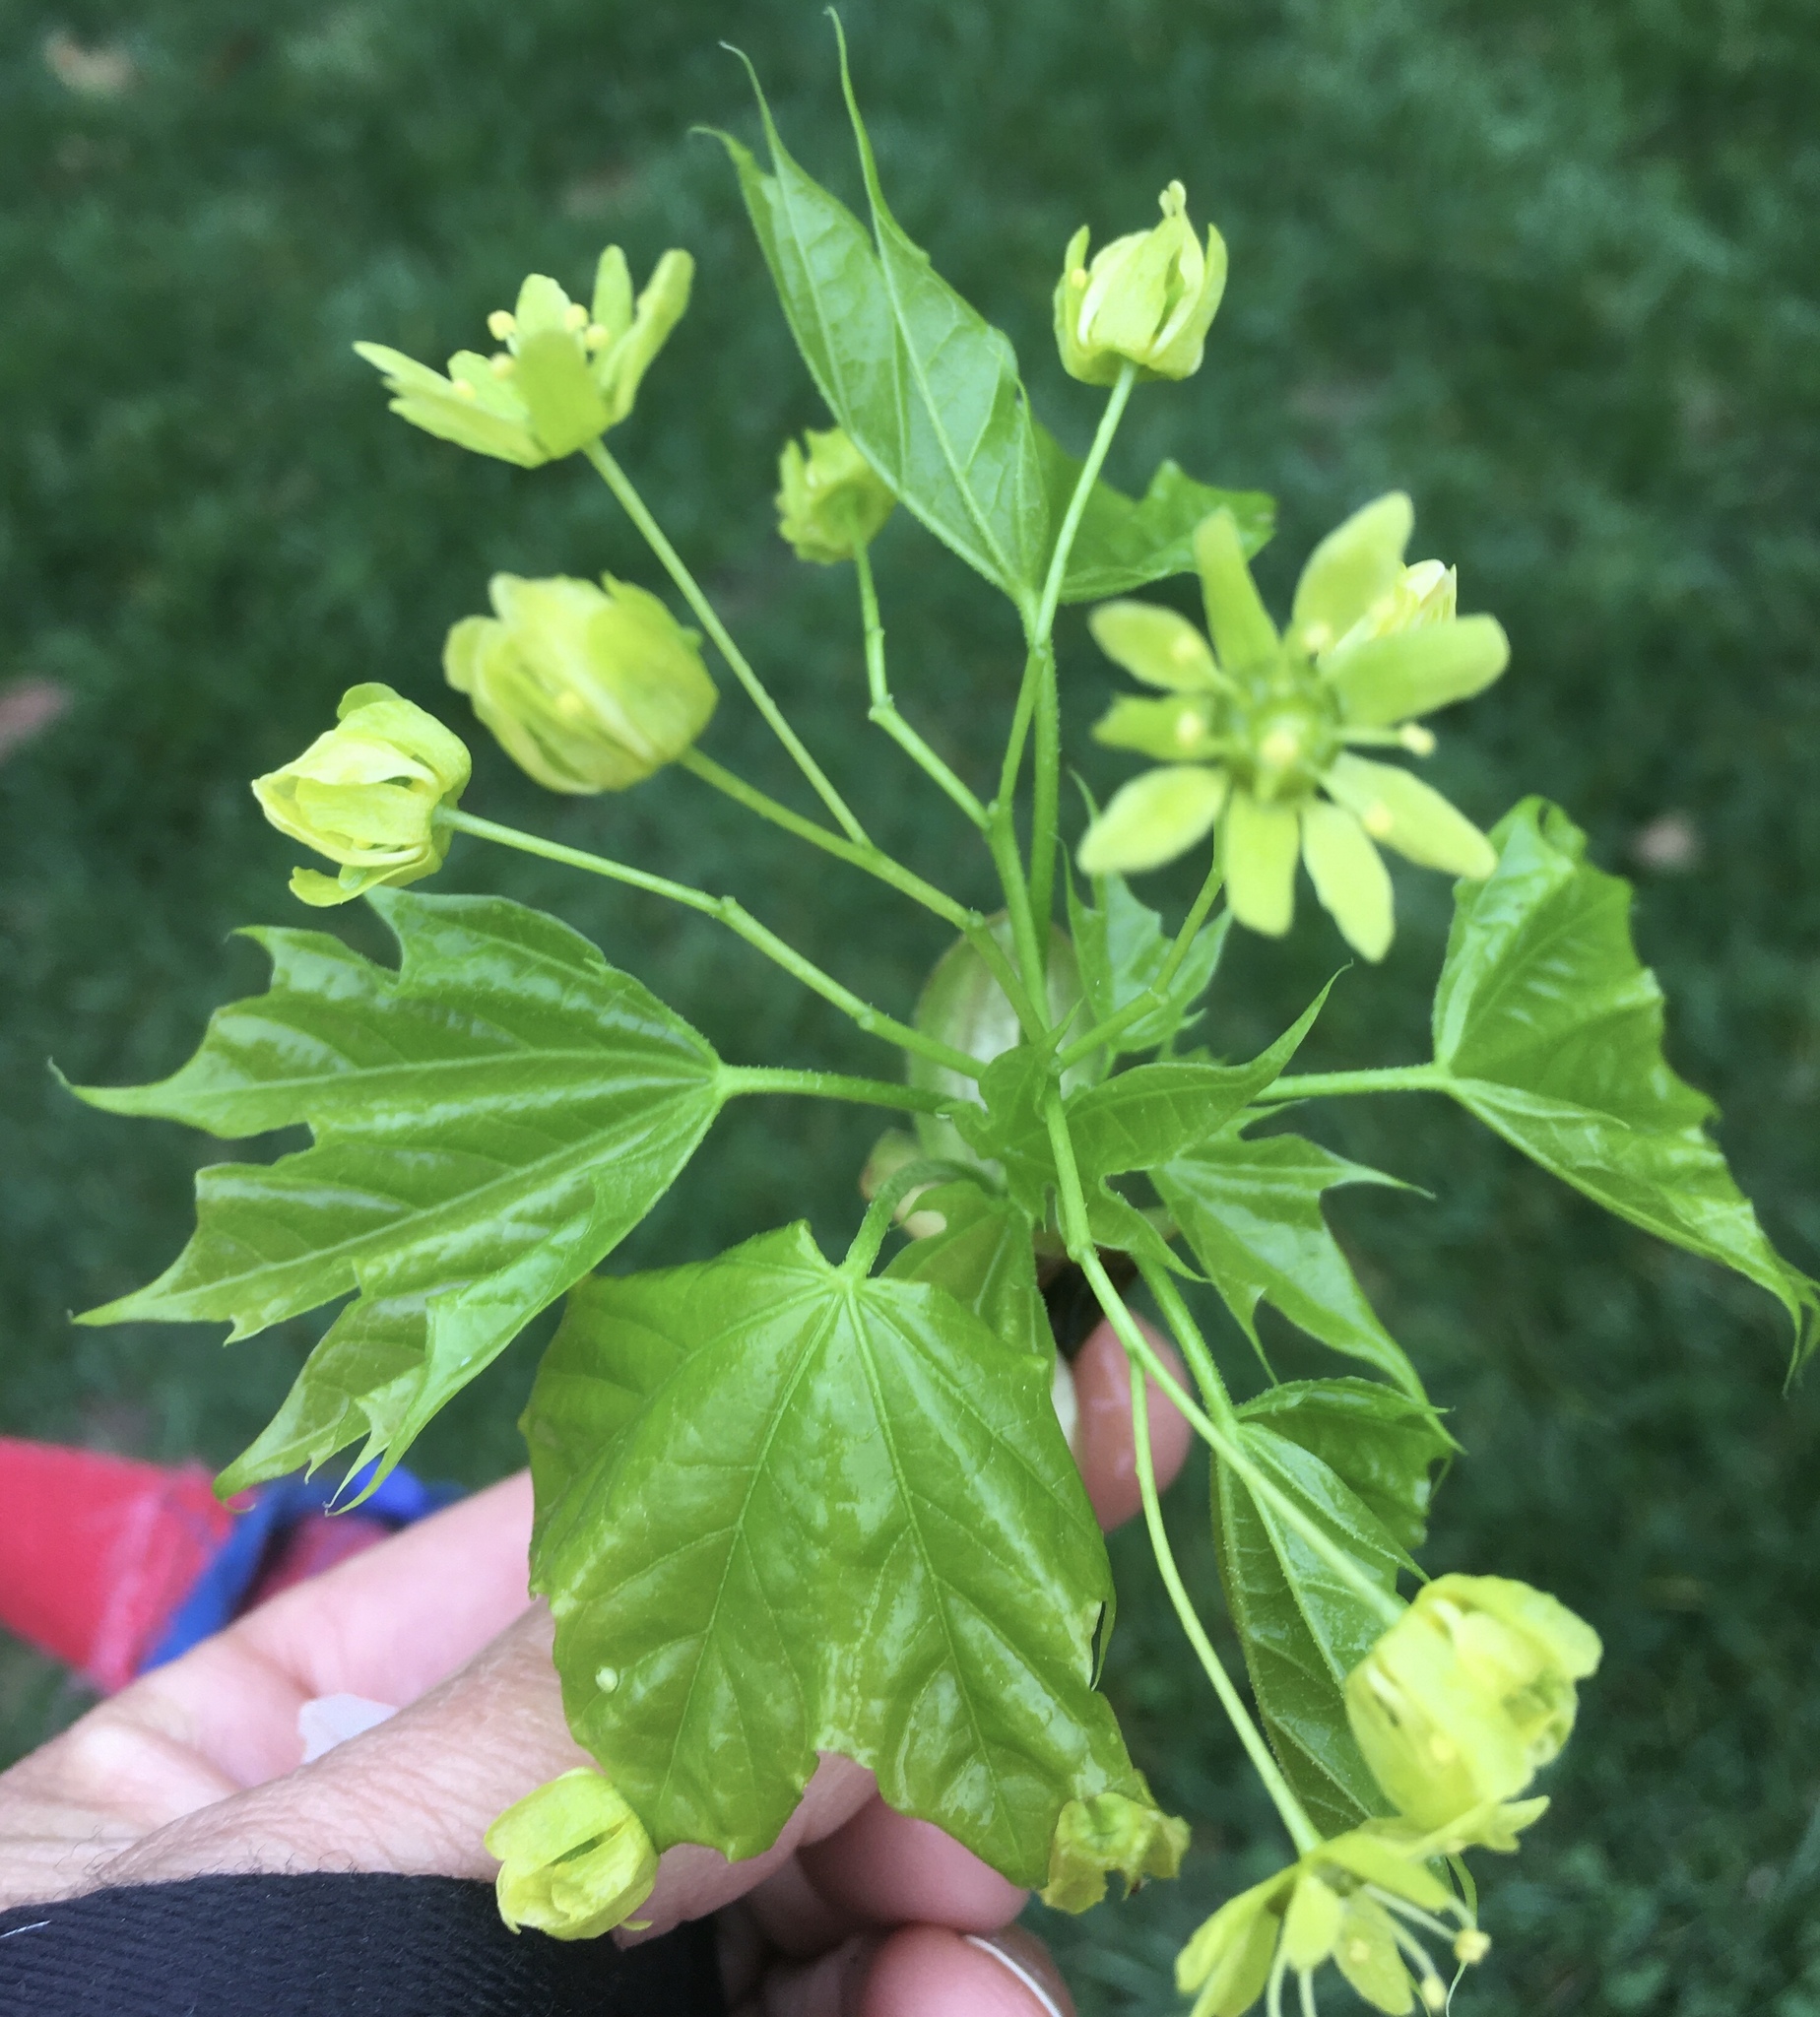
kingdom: Plantae
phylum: Tracheophyta
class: Magnoliopsida
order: Sapindales
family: Sapindaceae
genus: Acer
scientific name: Acer platanoides
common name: Norway maple
